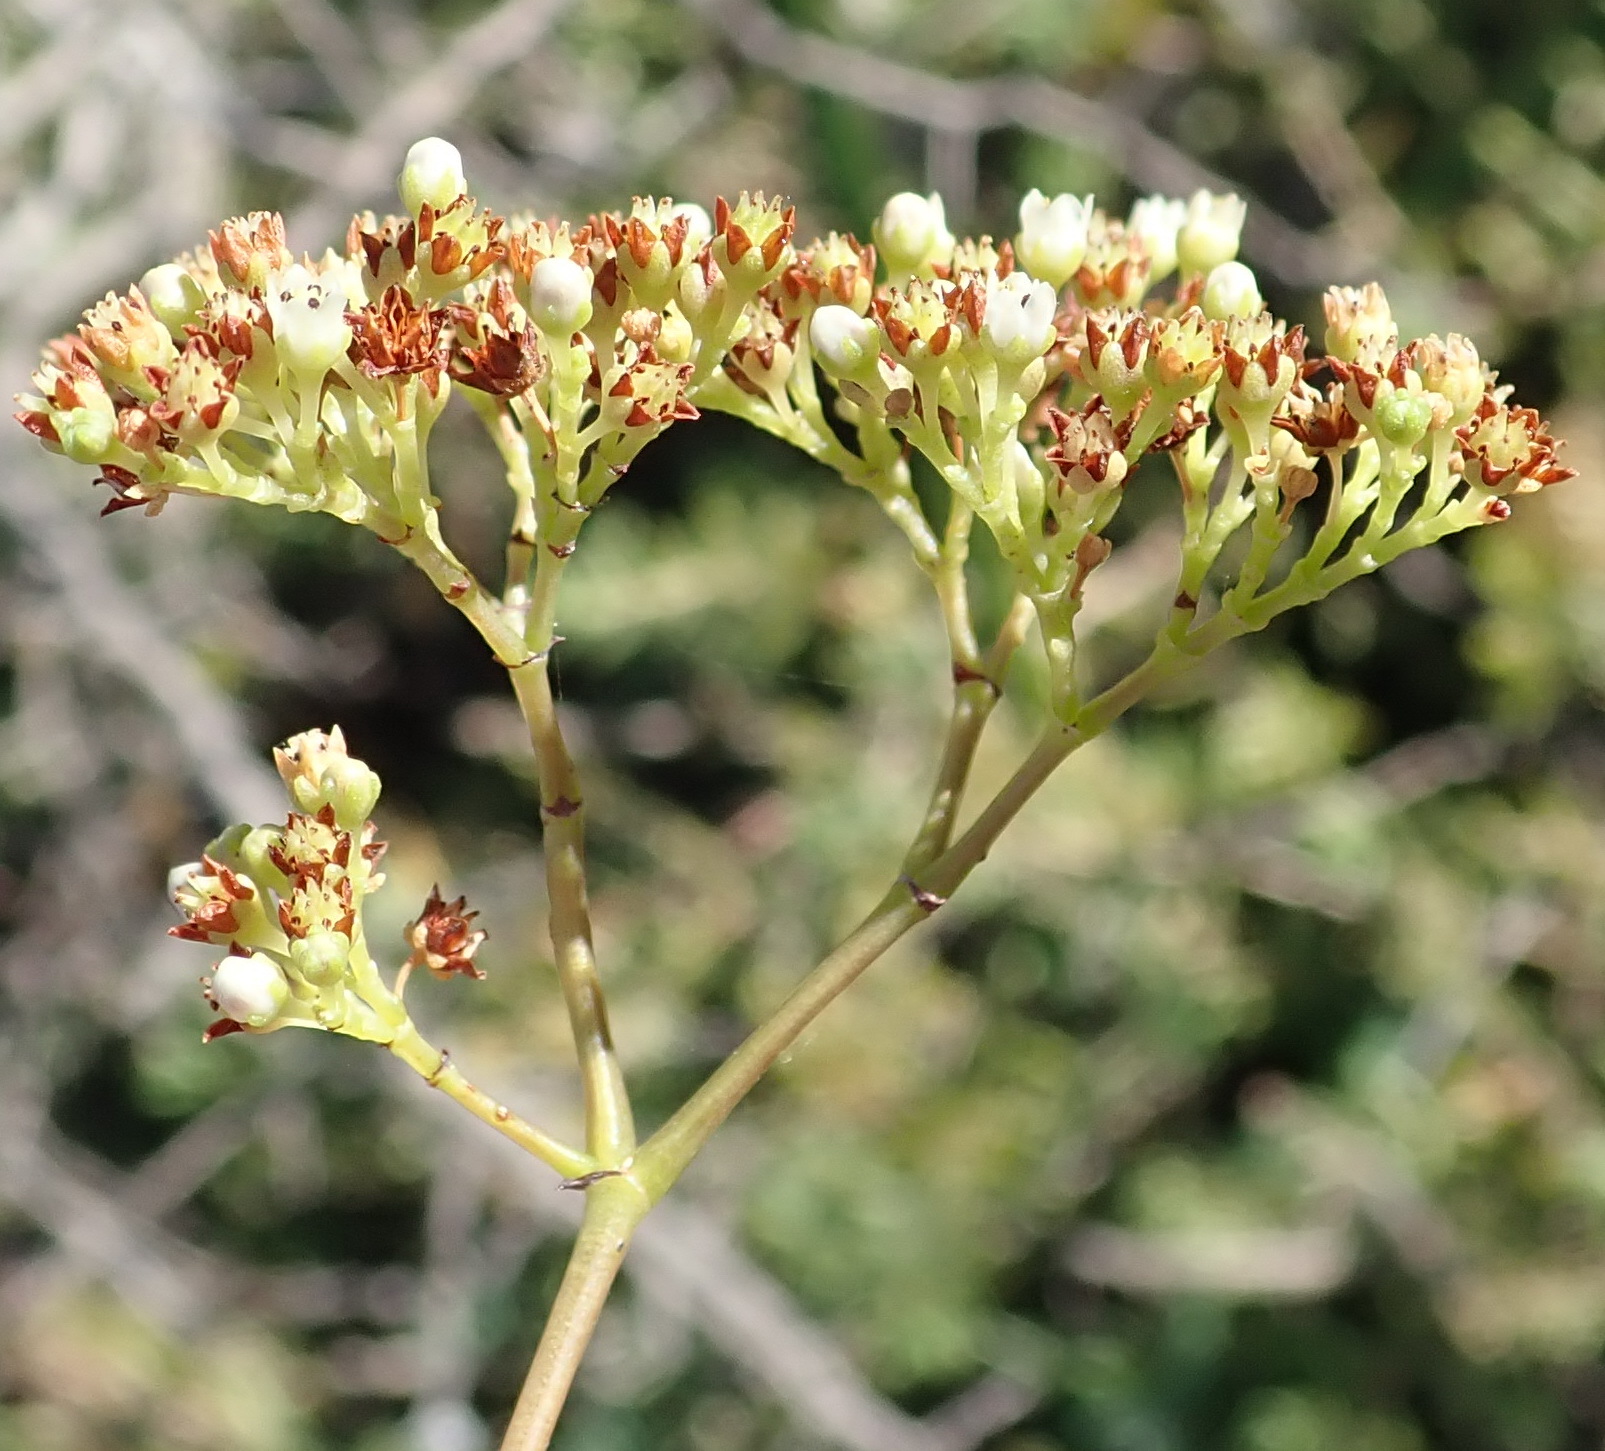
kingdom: Plantae
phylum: Tracheophyta
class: Magnoliopsida
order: Saxifragales
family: Crassulaceae
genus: Crassula
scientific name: Crassula tetragona
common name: Pygmyweed
